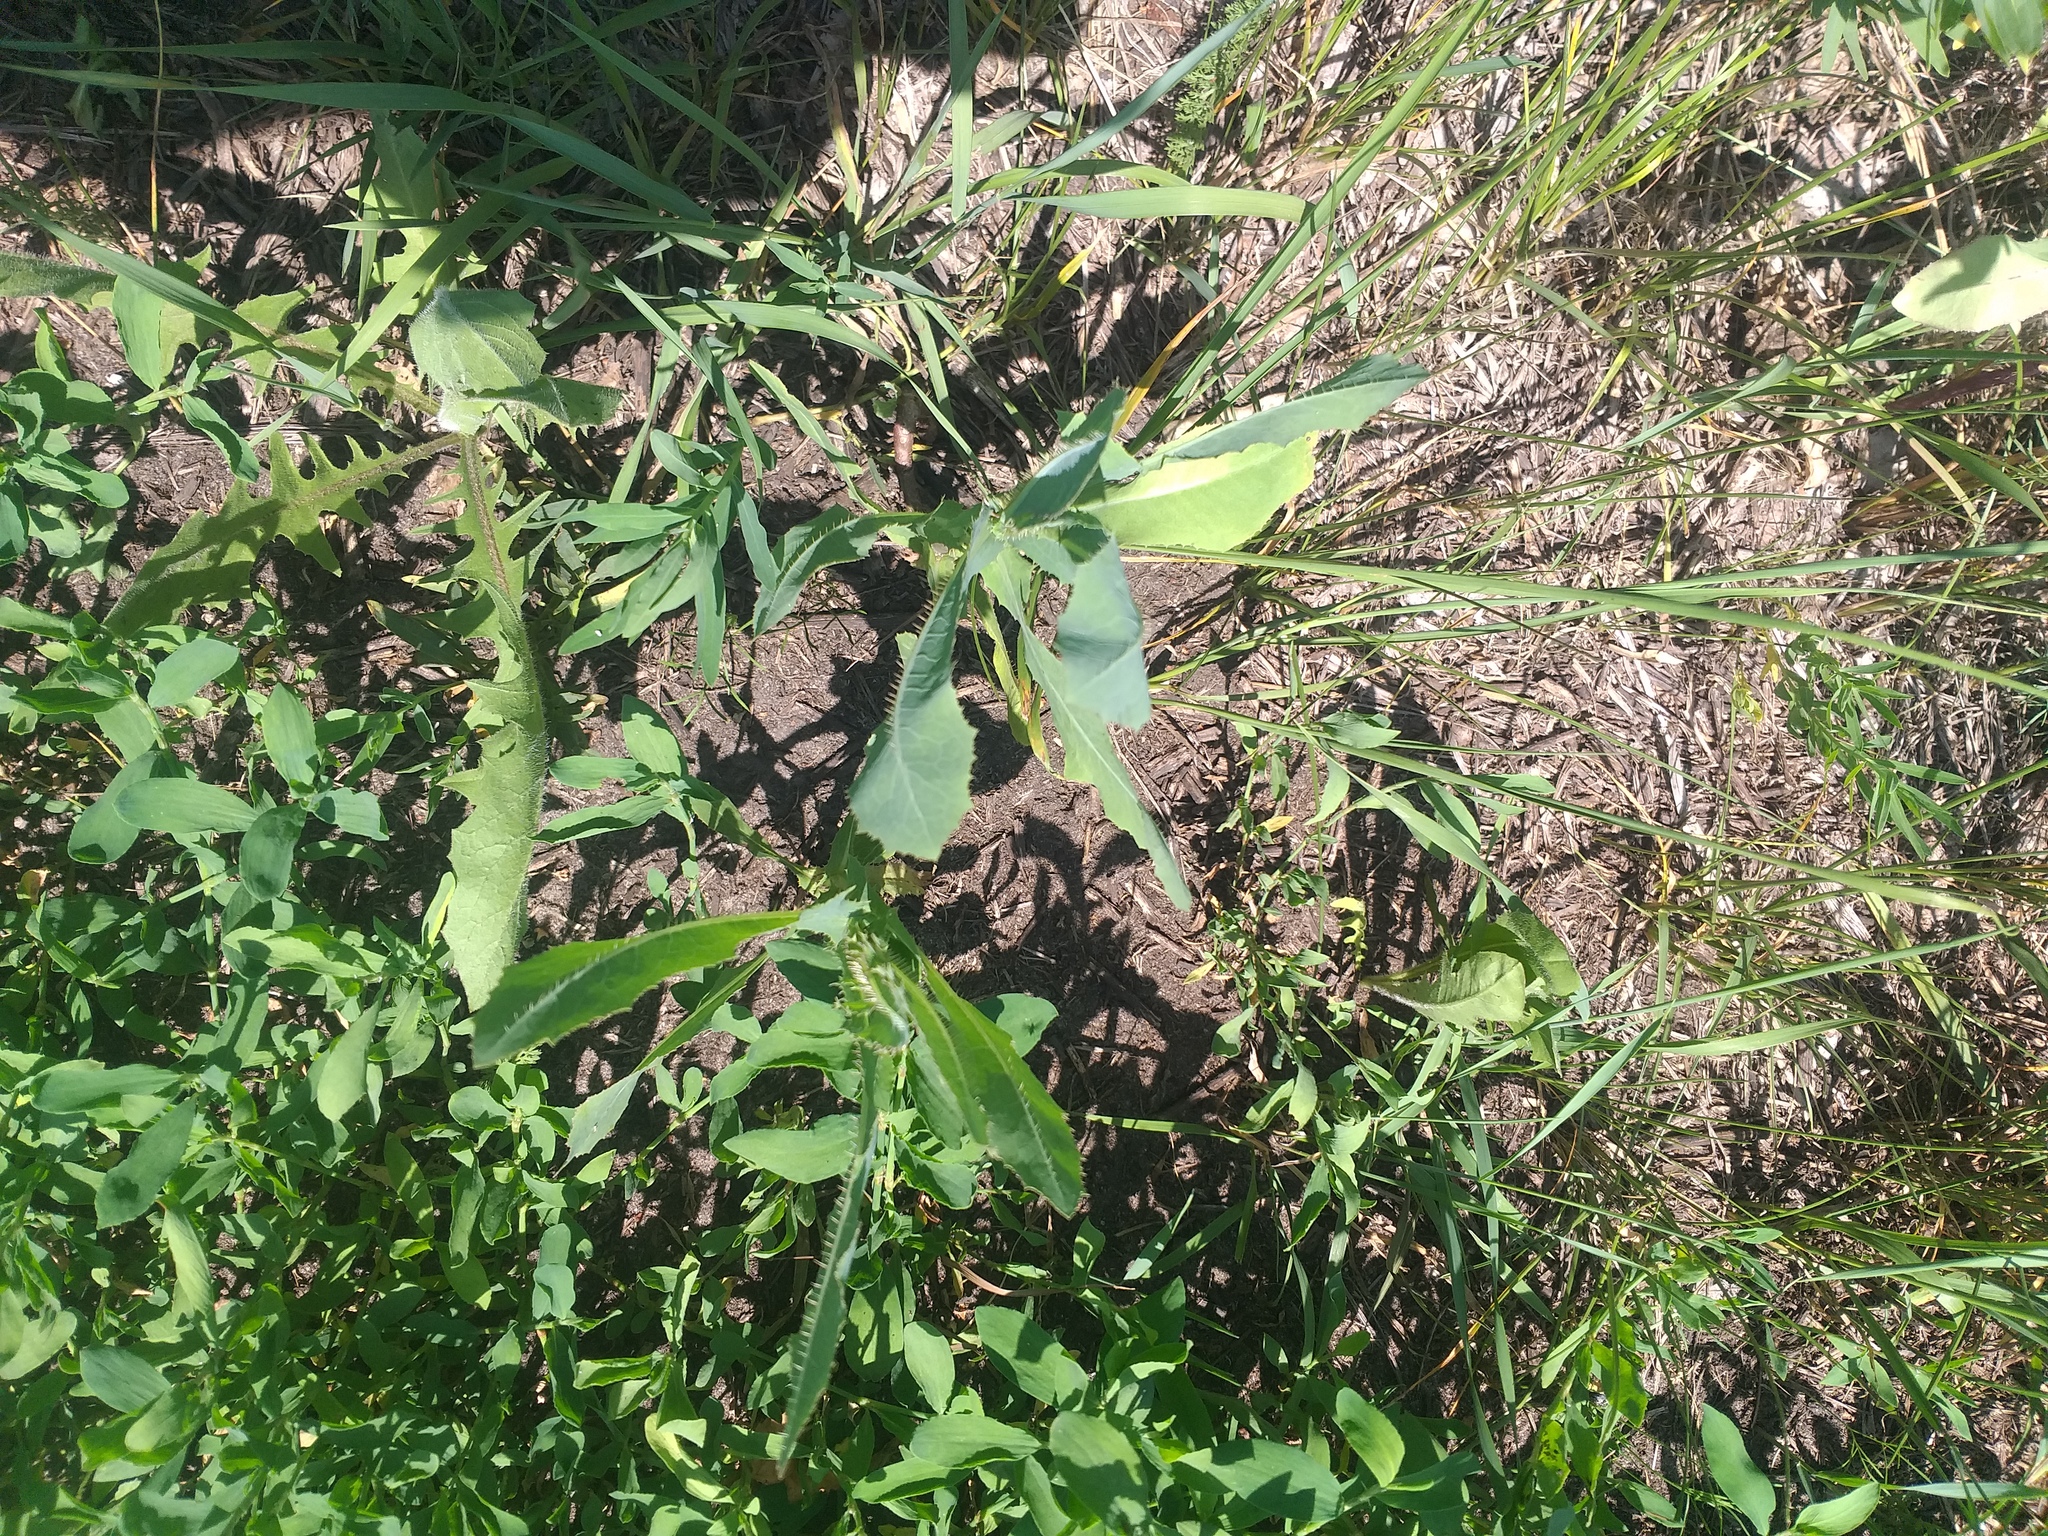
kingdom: Plantae
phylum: Tracheophyta
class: Magnoliopsida
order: Asterales
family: Asteraceae
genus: Lactuca
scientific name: Lactuca serriola
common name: Prickly lettuce
